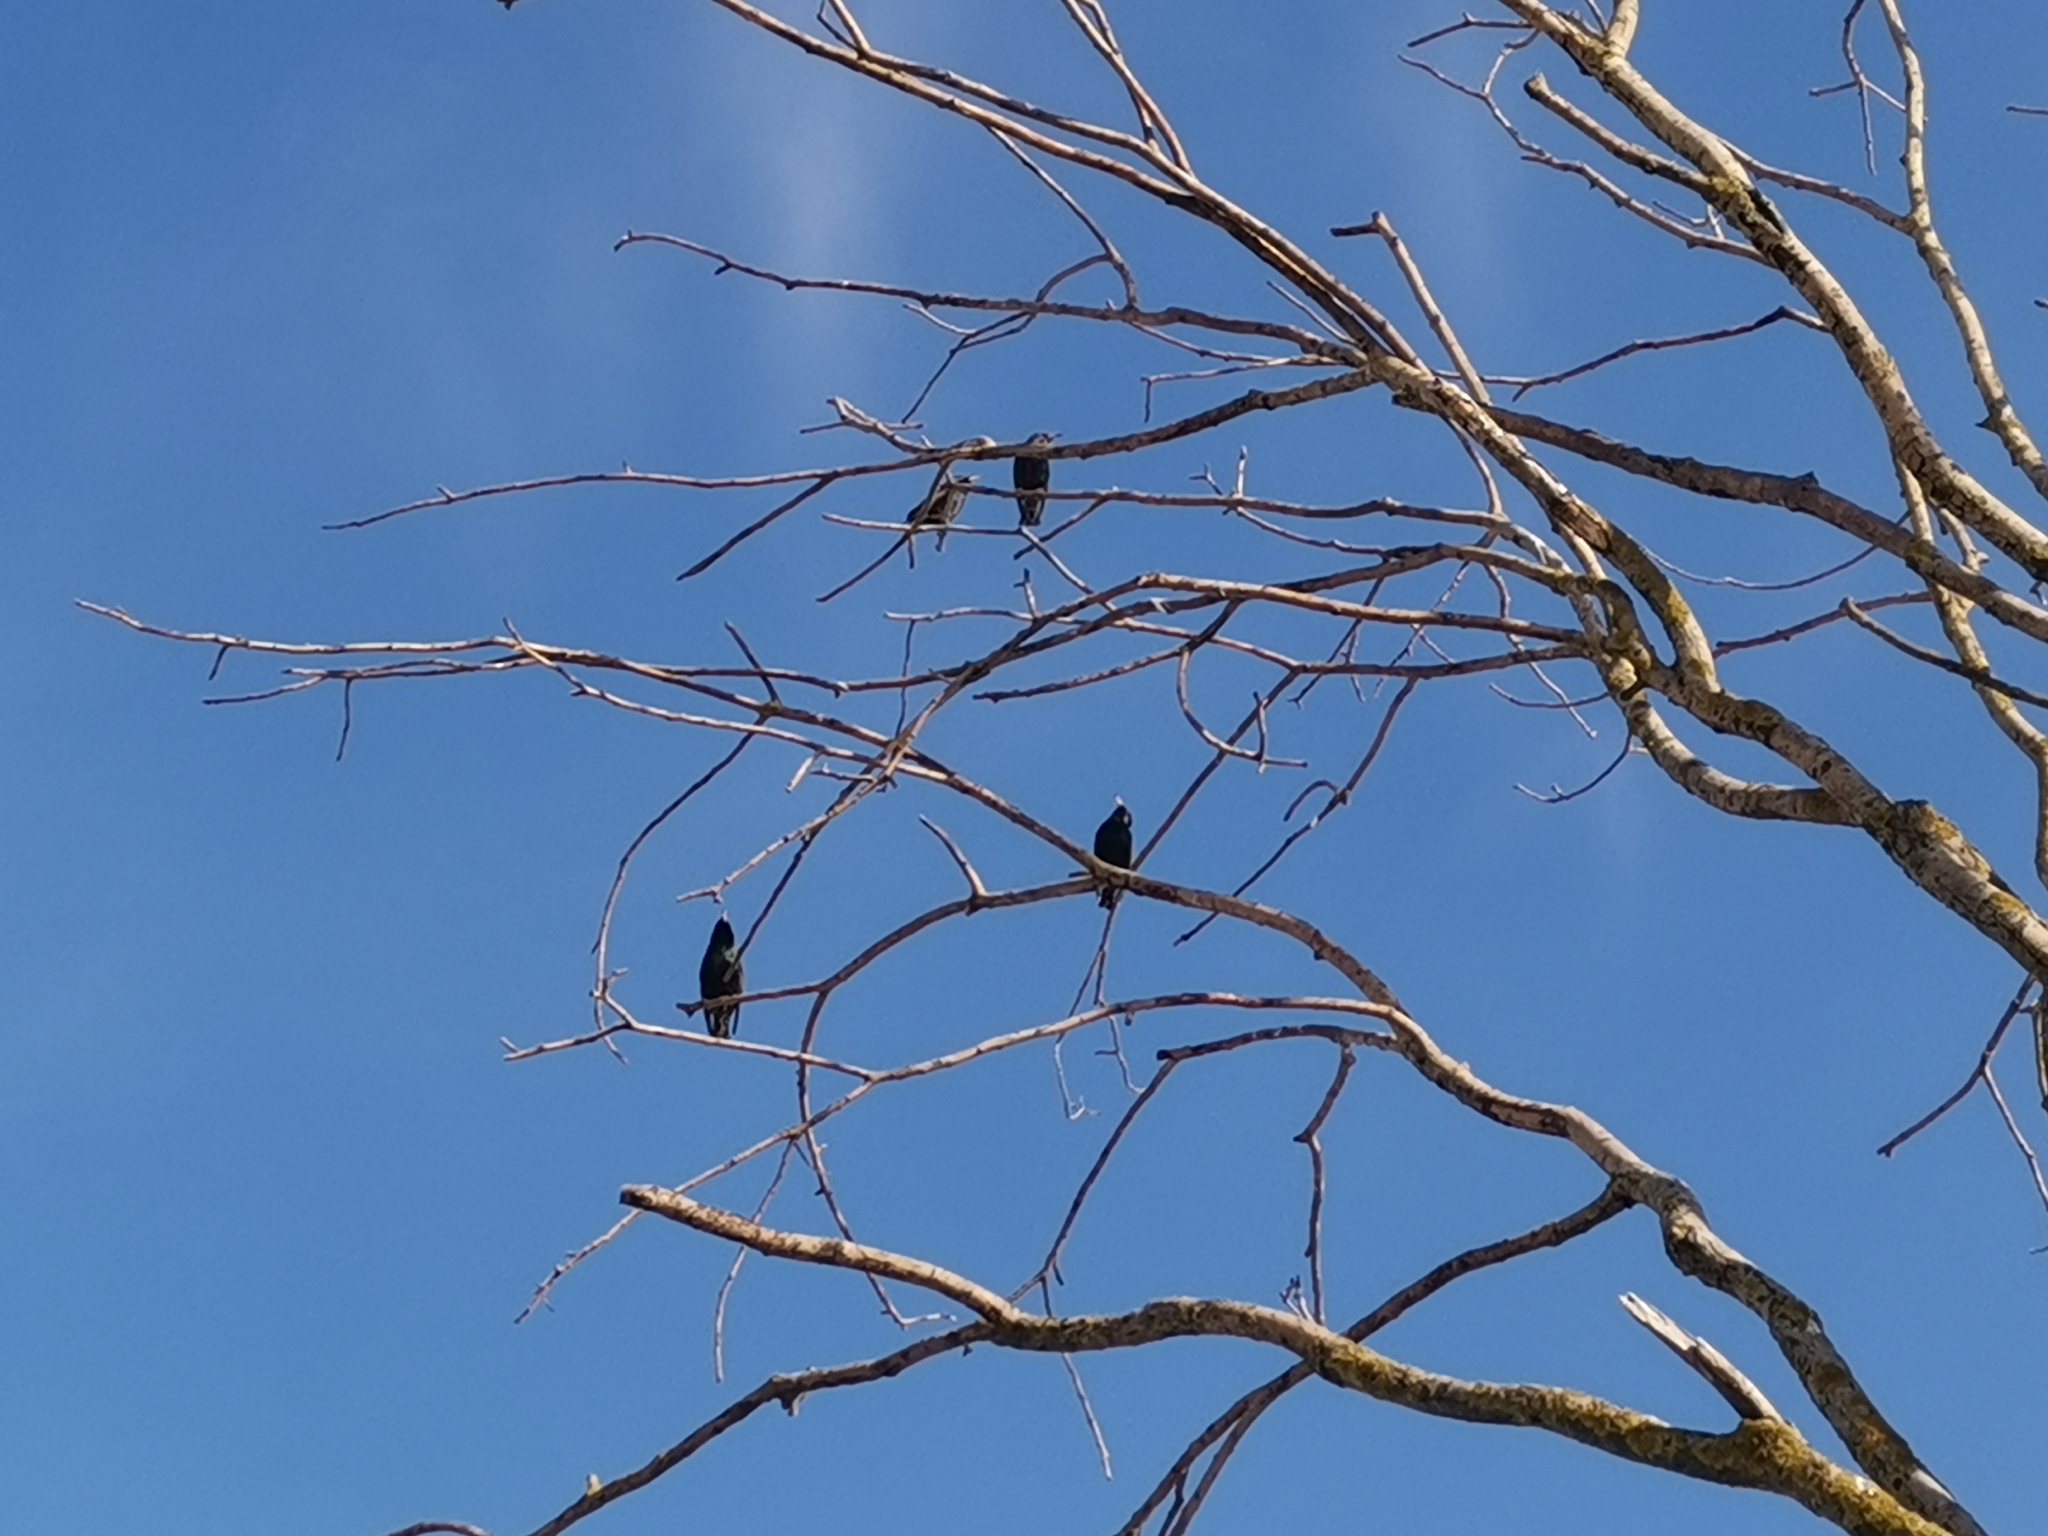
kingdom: Animalia
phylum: Chordata
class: Aves
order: Passeriformes
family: Sturnidae
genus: Sturnus
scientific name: Sturnus vulgaris
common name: Common starling
